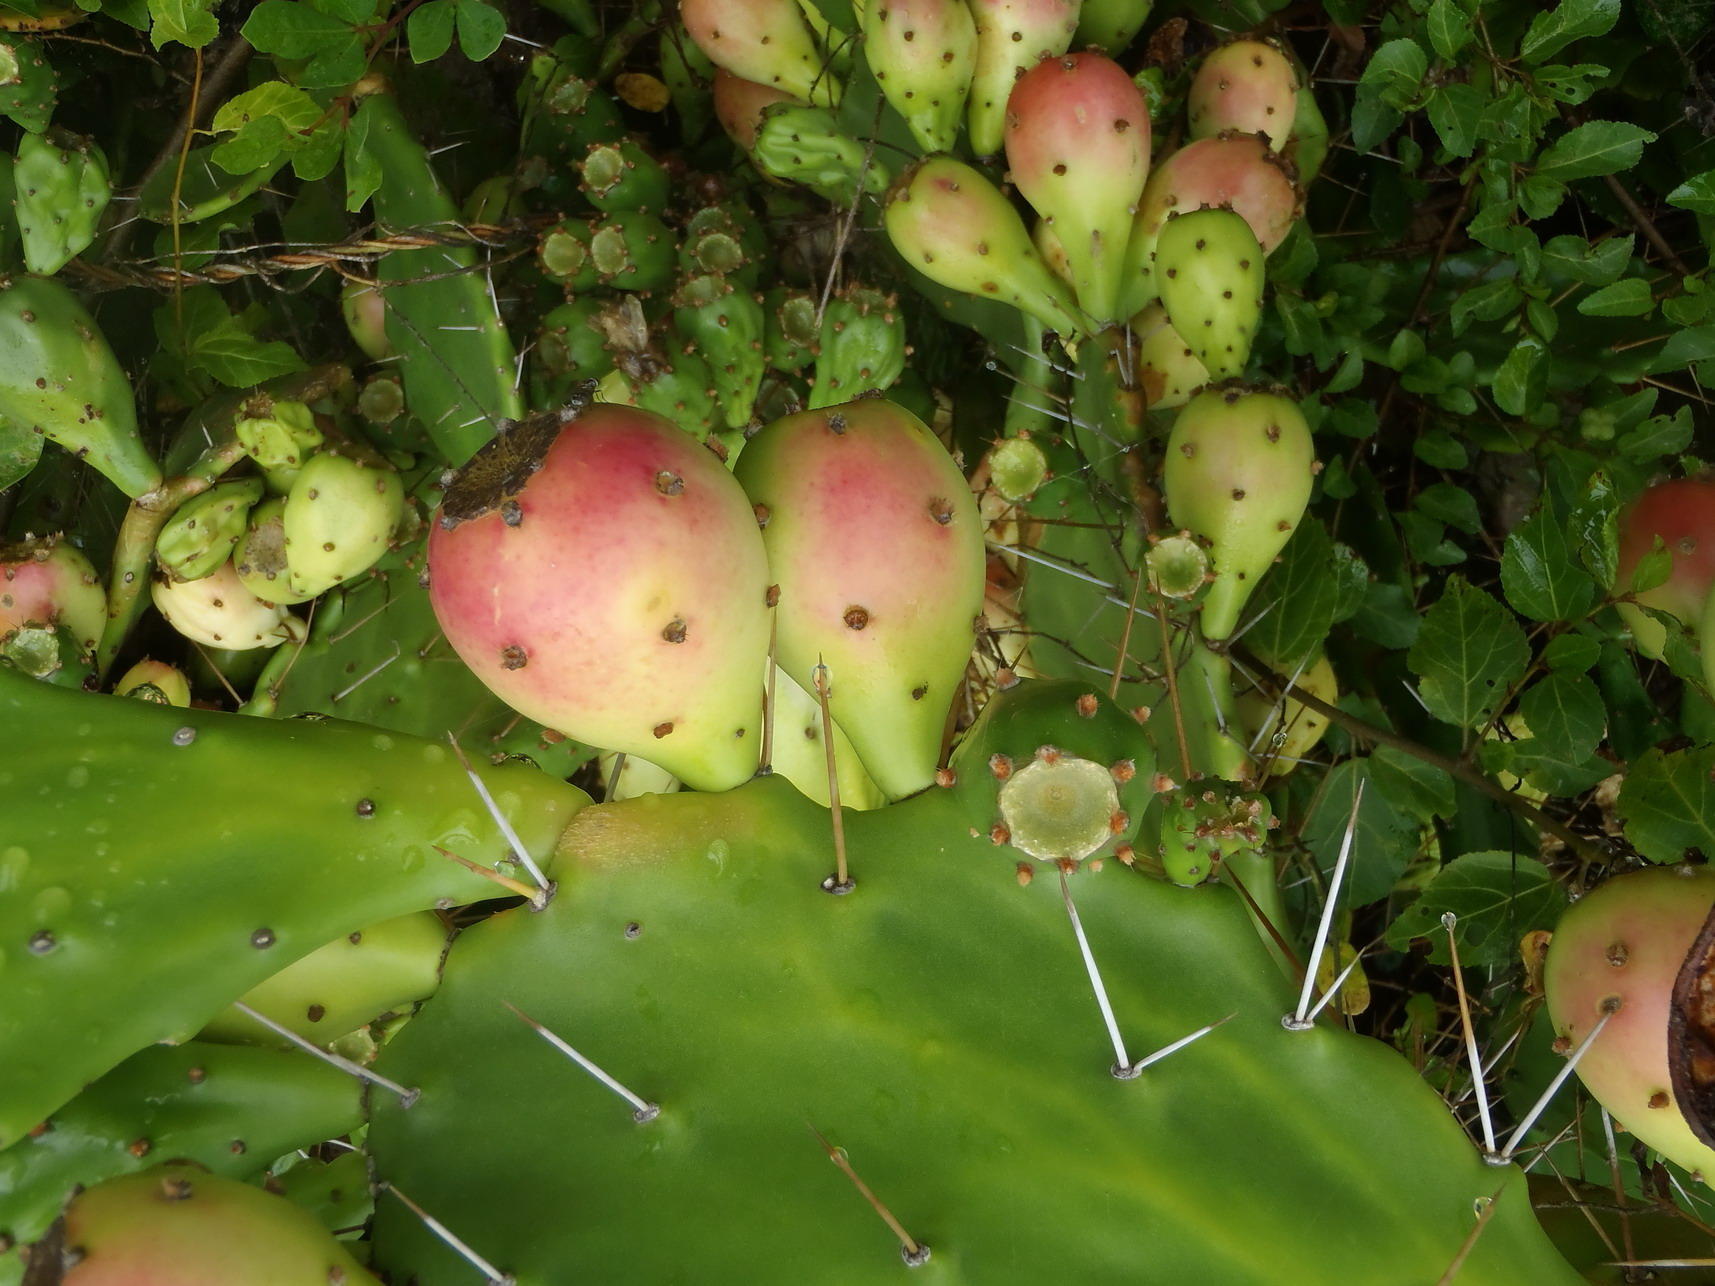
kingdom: Plantae
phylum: Tracheophyta
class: Magnoliopsida
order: Caryophyllales
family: Cactaceae
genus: Opuntia
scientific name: Opuntia monacantha
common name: Common pricklypear
